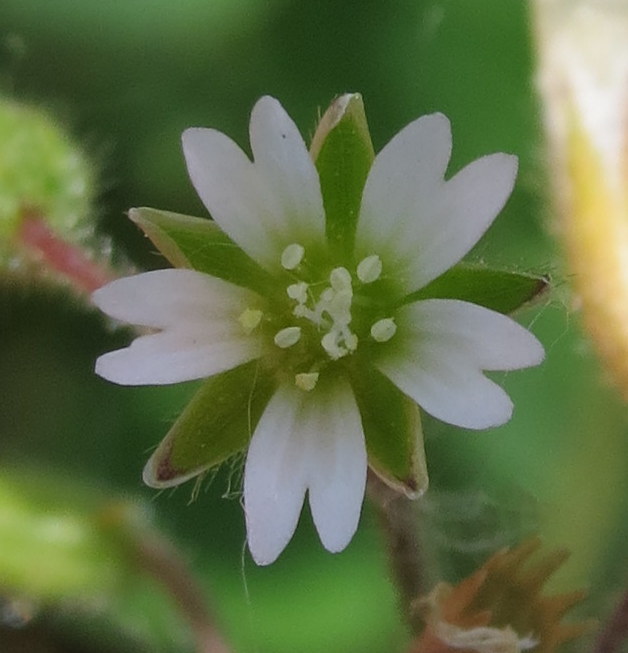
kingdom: Plantae
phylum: Tracheophyta
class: Magnoliopsida
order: Caryophyllales
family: Caryophyllaceae
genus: Cerastium
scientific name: Cerastium fontanum
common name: Common mouse-ear
